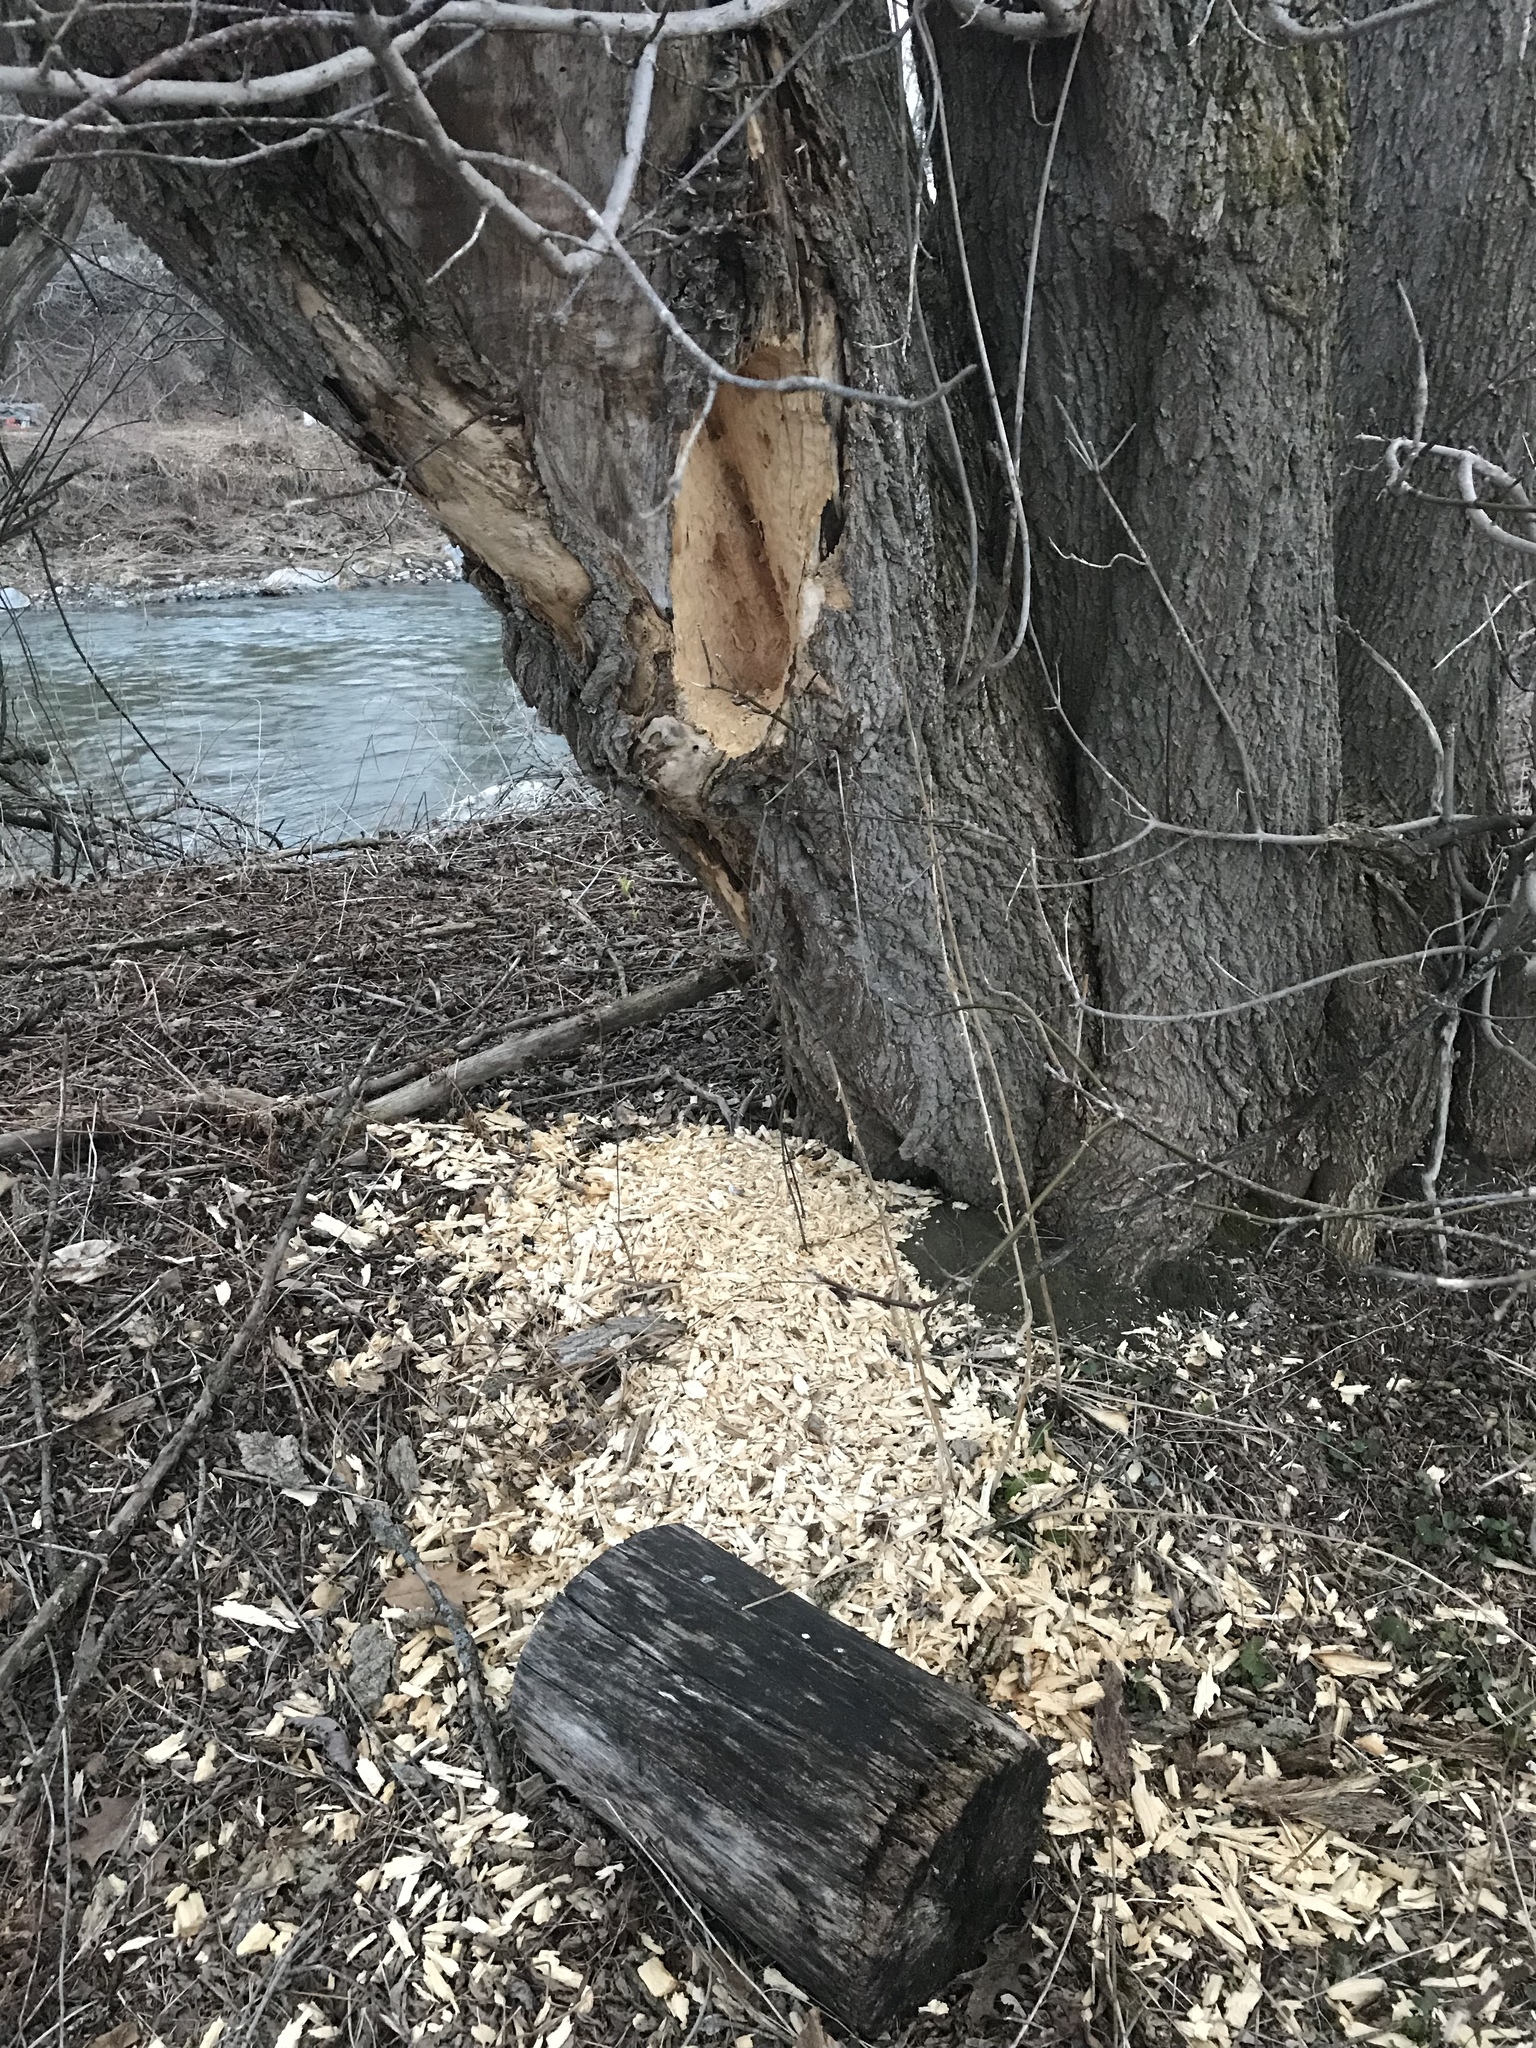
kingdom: Animalia
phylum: Chordata
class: Aves
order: Piciformes
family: Picidae
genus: Dryocopus
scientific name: Dryocopus pileatus
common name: Pileated woodpecker
